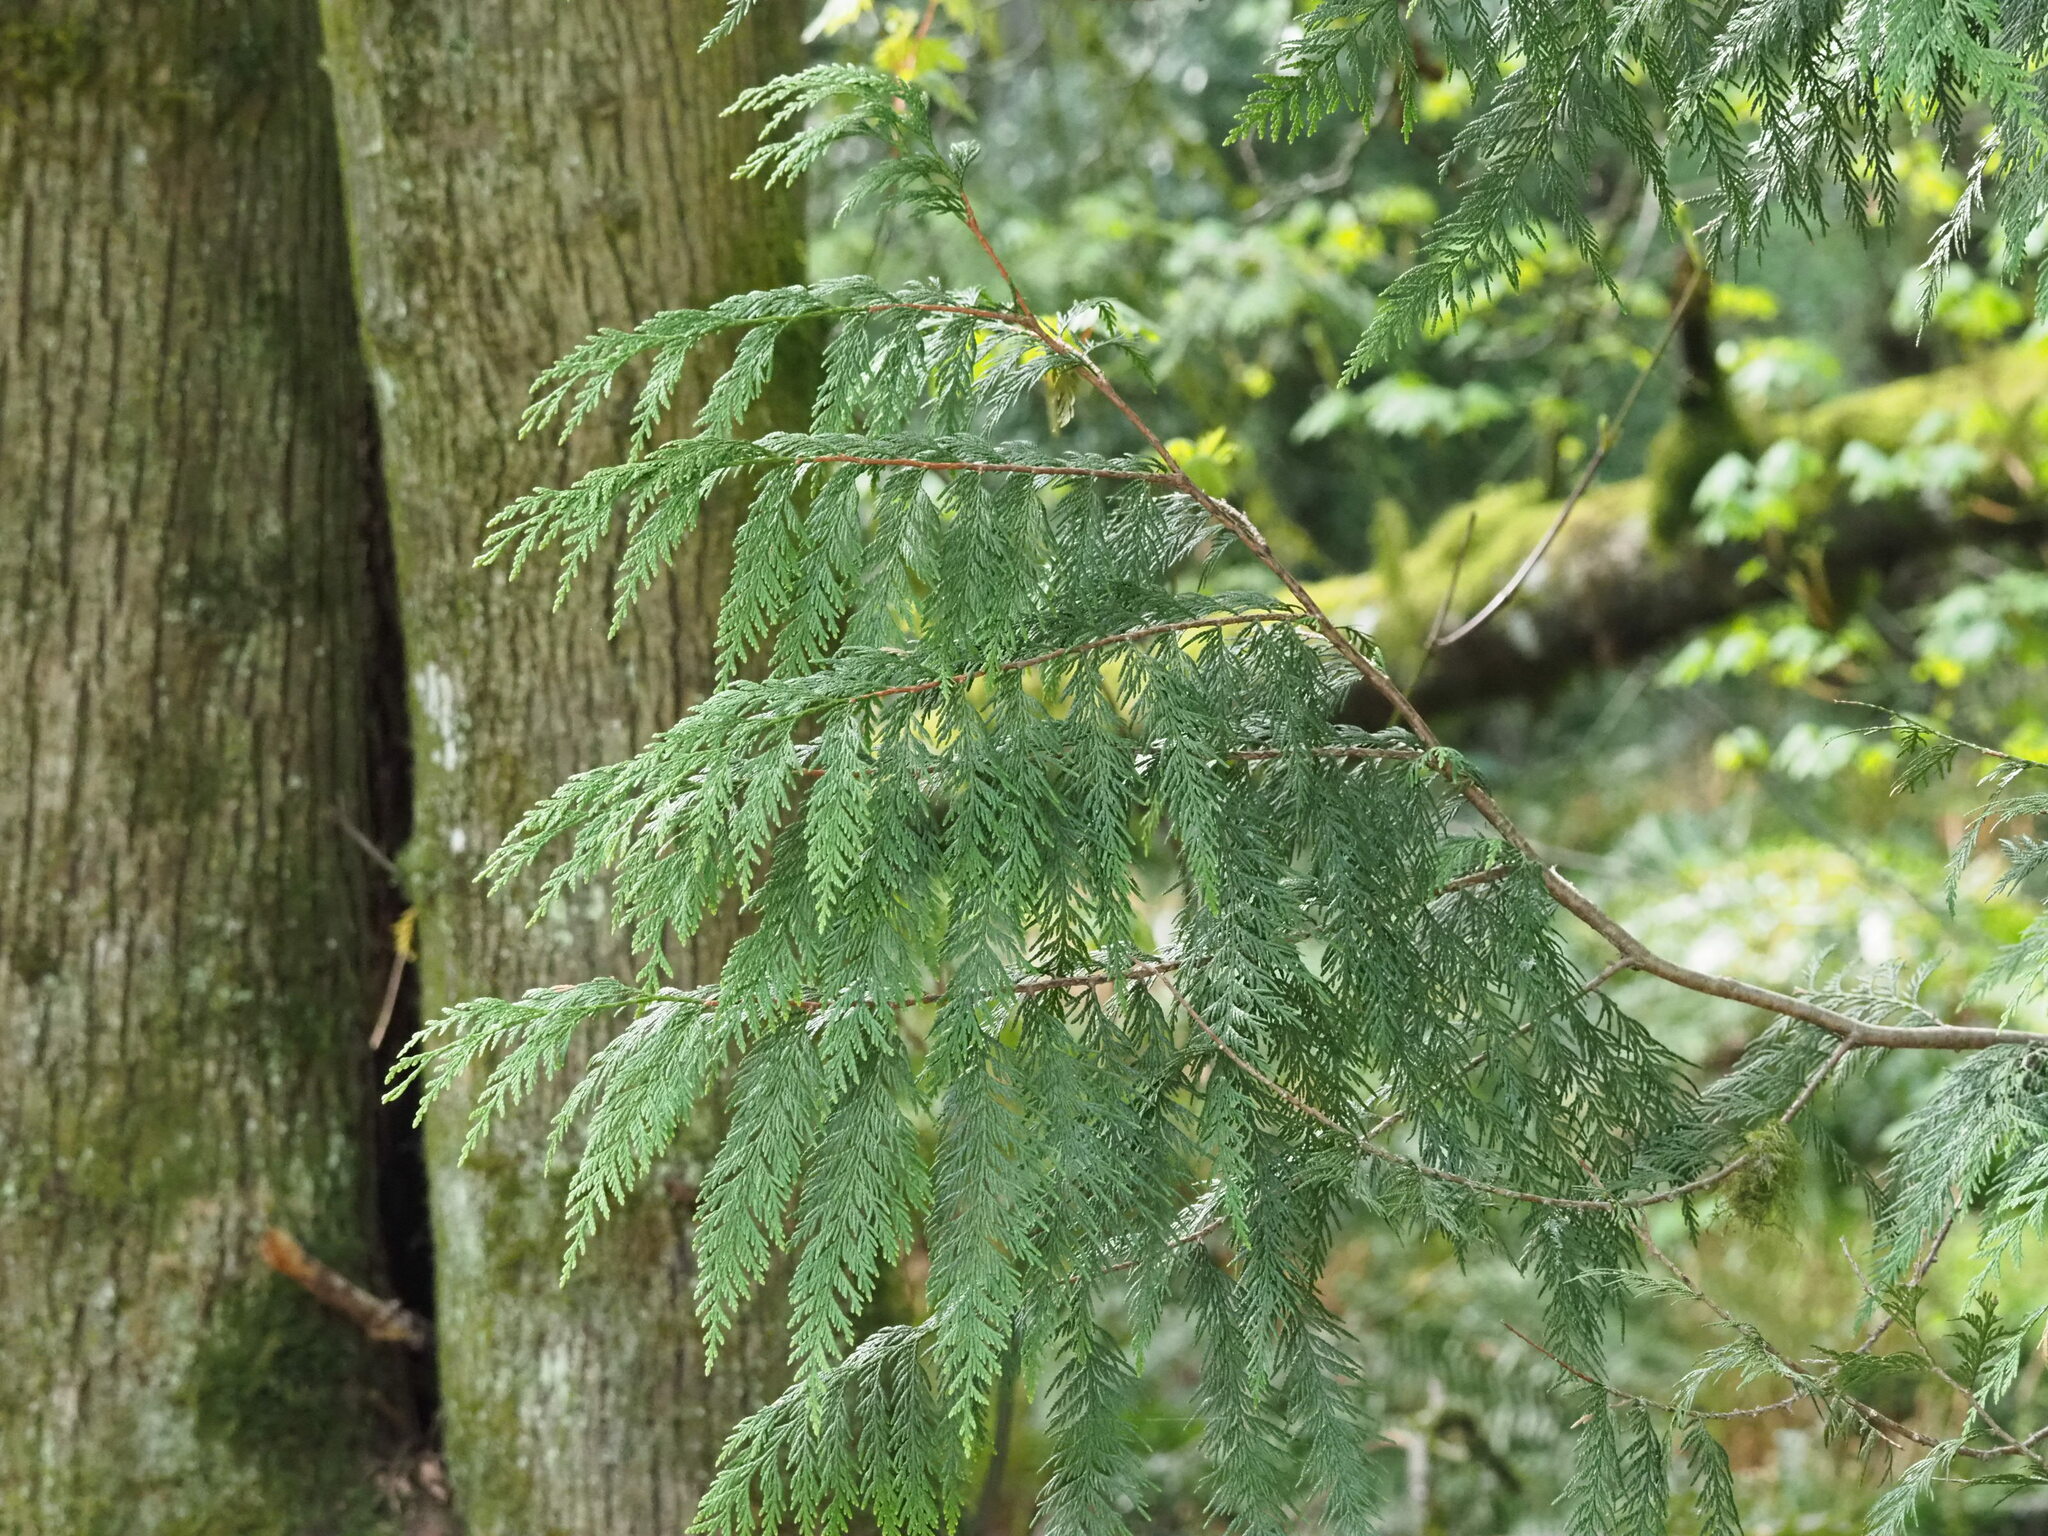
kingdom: Plantae
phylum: Tracheophyta
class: Pinopsida
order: Pinales
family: Cupressaceae
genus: Thuja
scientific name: Thuja plicata
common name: Western red-cedar
